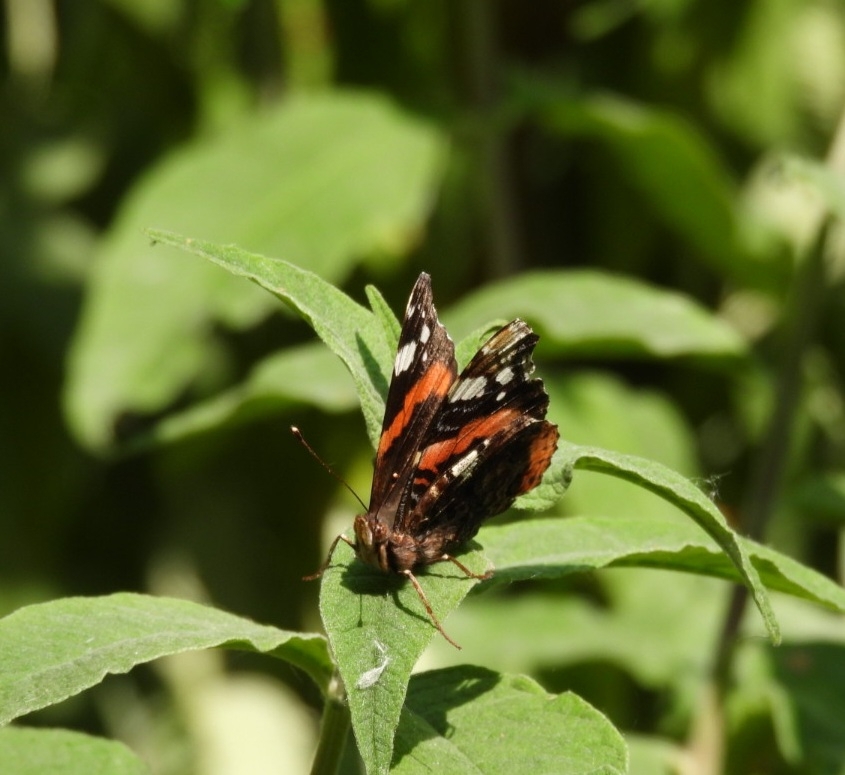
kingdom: Animalia
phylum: Arthropoda
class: Insecta
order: Lepidoptera
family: Nymphalidae
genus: Vanessa
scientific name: Vanessa atalanta
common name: Red admiral
